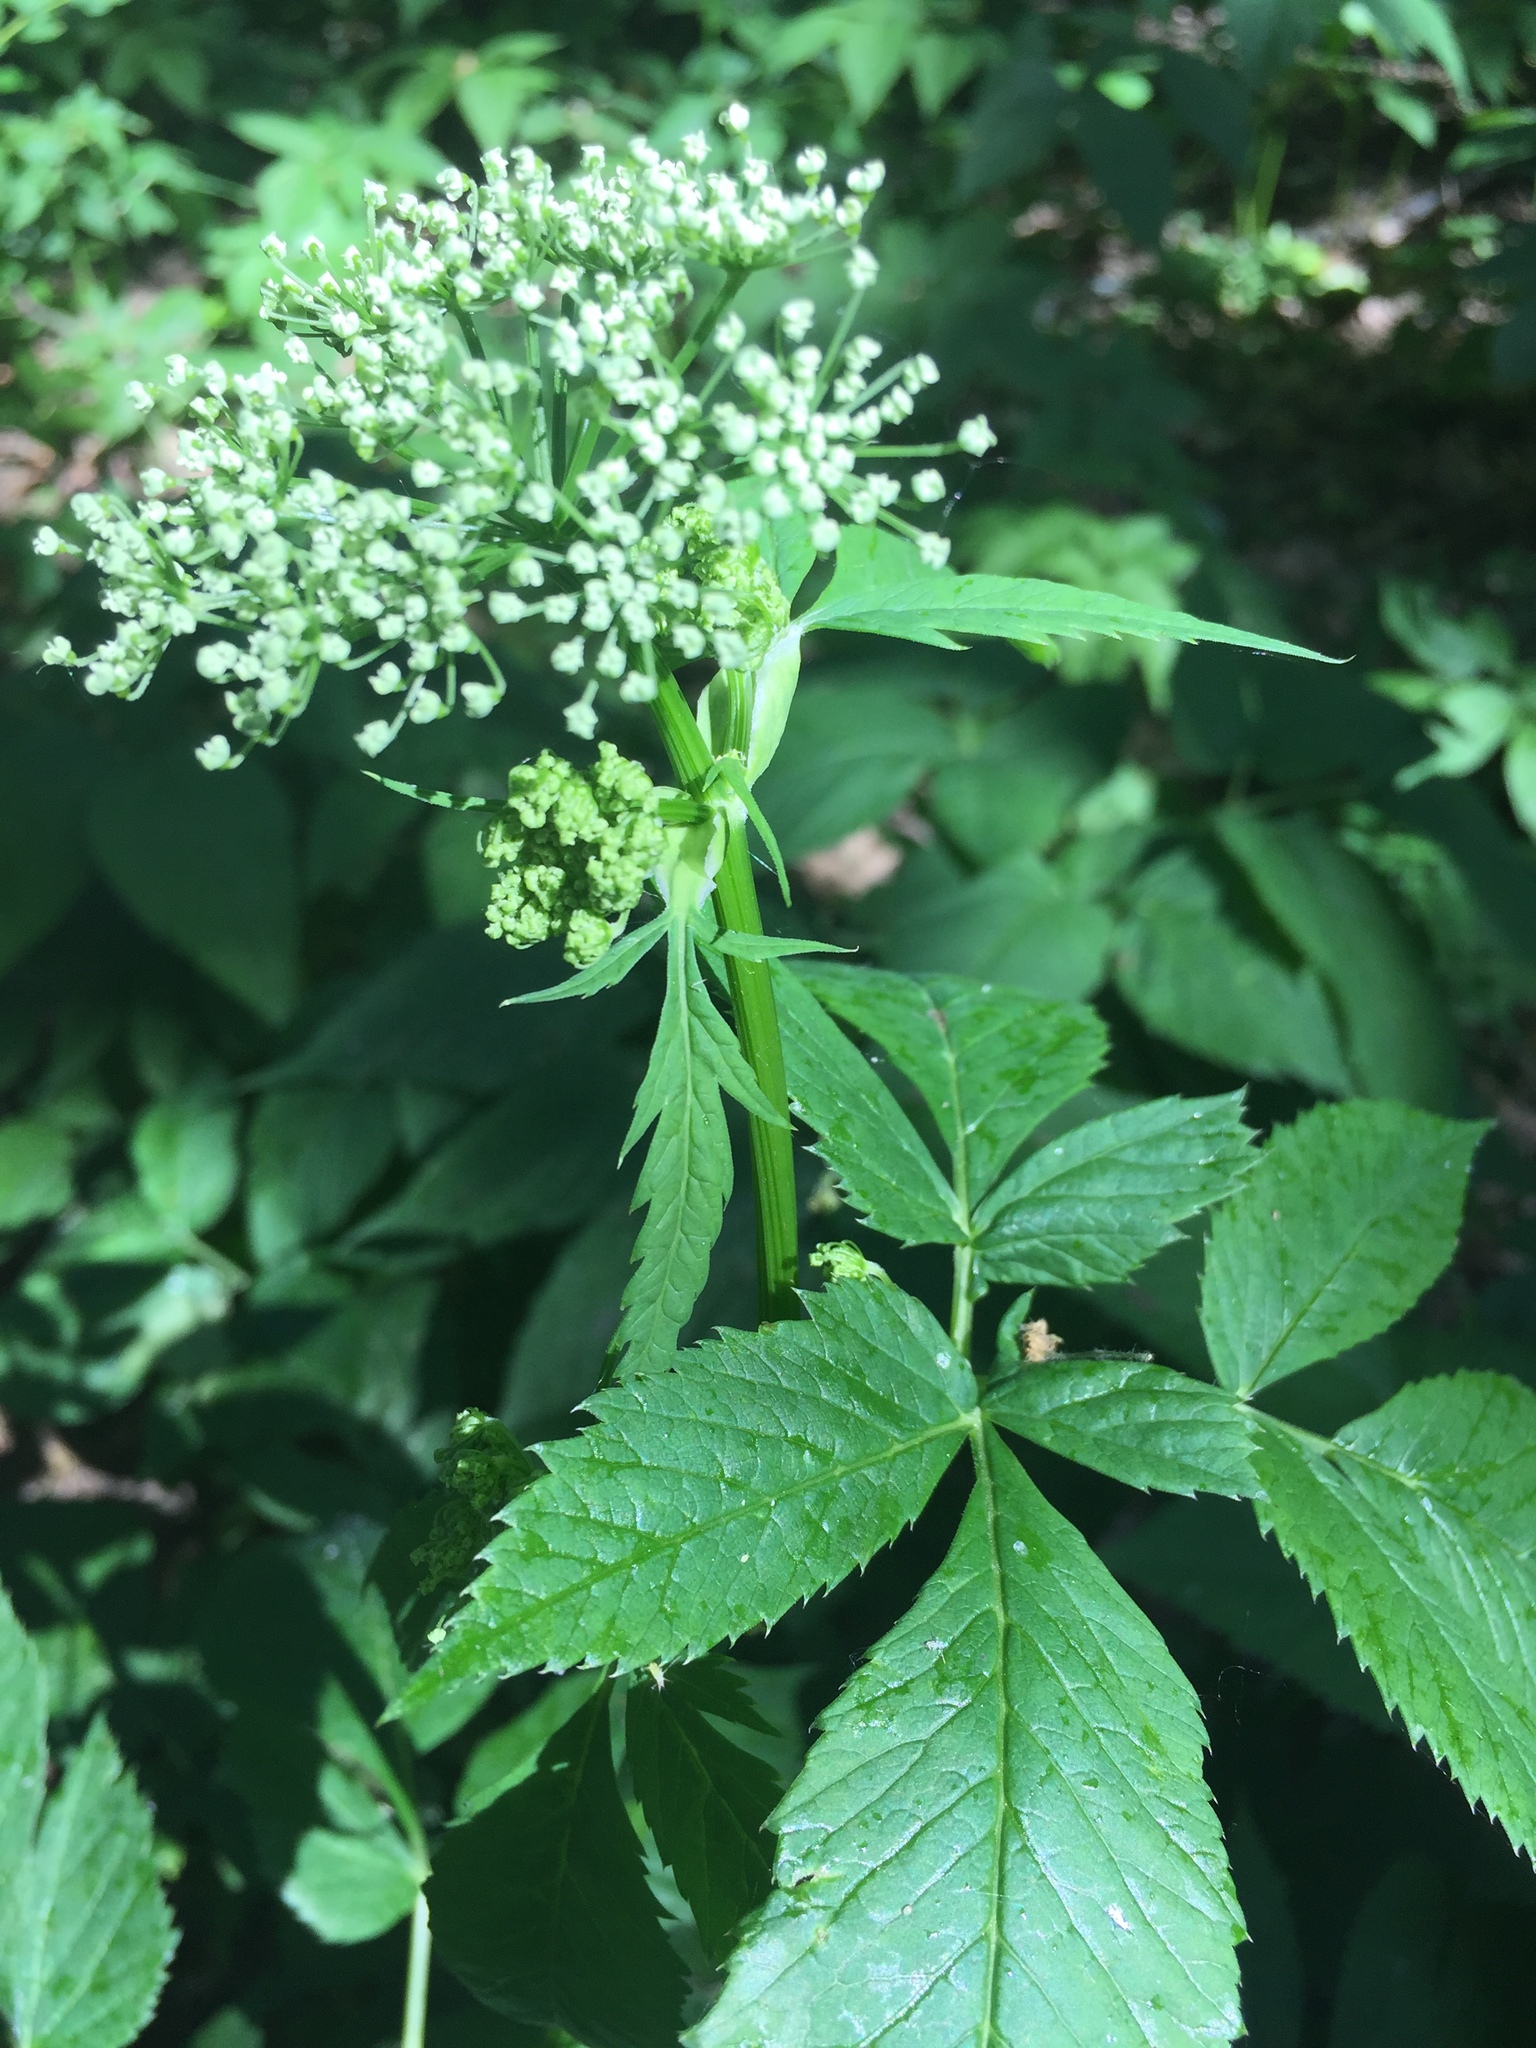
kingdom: Plantae
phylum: Tracheophyta
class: Magnoliopsida
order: Apiales
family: Apiaceae
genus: Aegopodium
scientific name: Aegopodium podagraria
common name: Ground-elder
